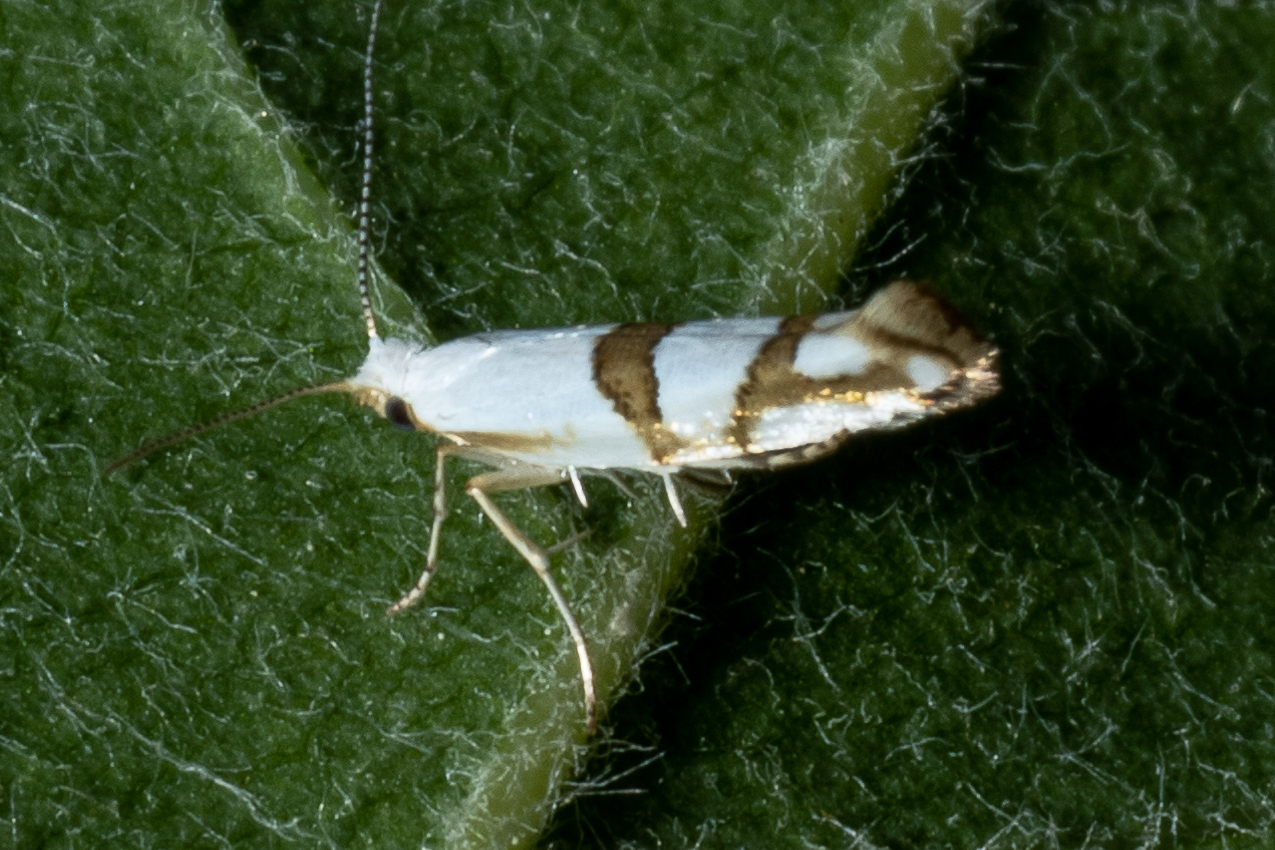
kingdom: Animalia
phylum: Arthropoda
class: Insecta
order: Lepidoptera
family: Argyresthiidae
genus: Argyresthia
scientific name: Argyresthia oreasella
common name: Cherry shoot borer moth
